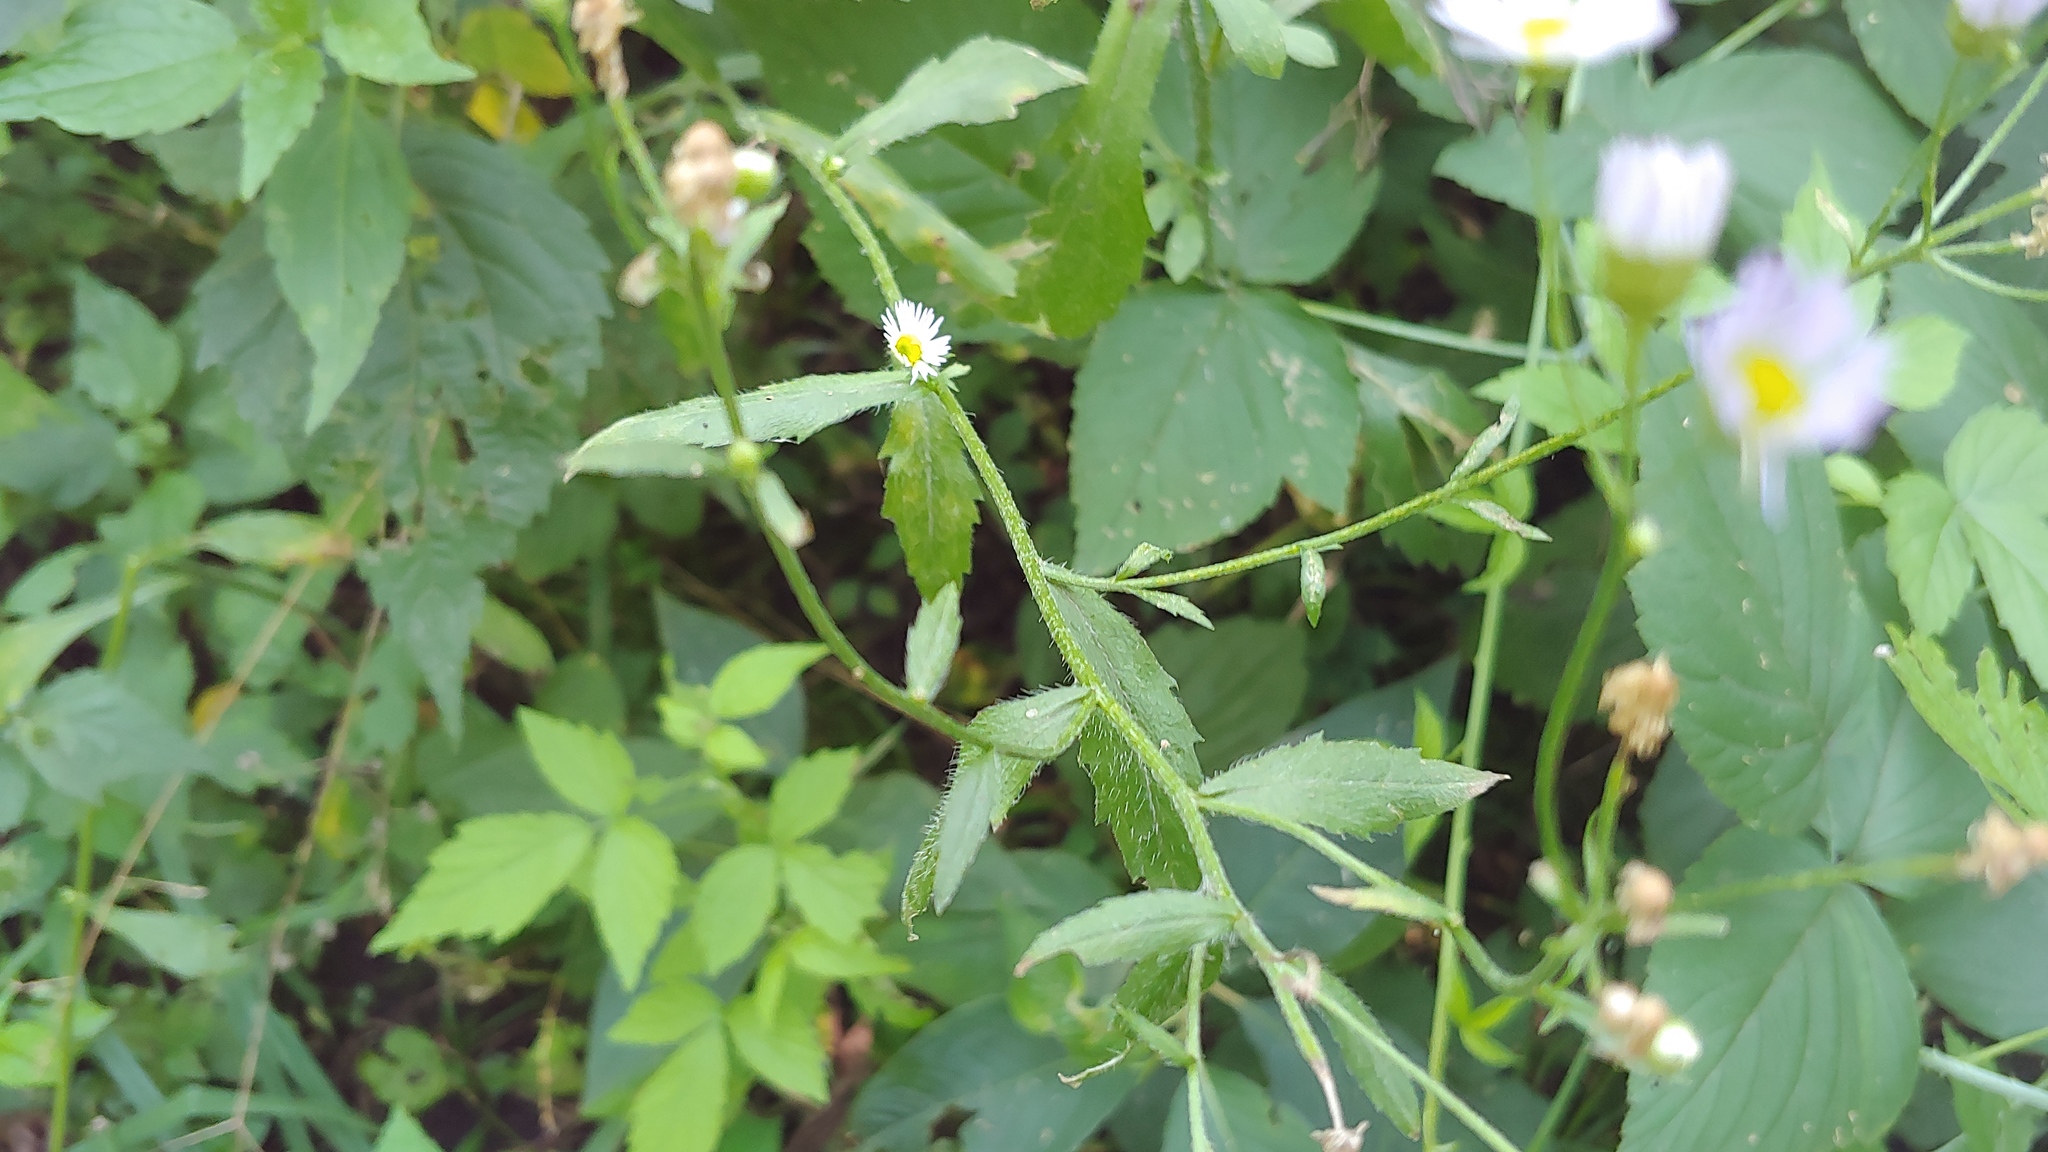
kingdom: Plantae
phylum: Tracheophyta
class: Magnoliopsida
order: Asterales
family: Asteraceae
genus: Erigeron
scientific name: Erigeron strigosus
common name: Common eastern fleabane
